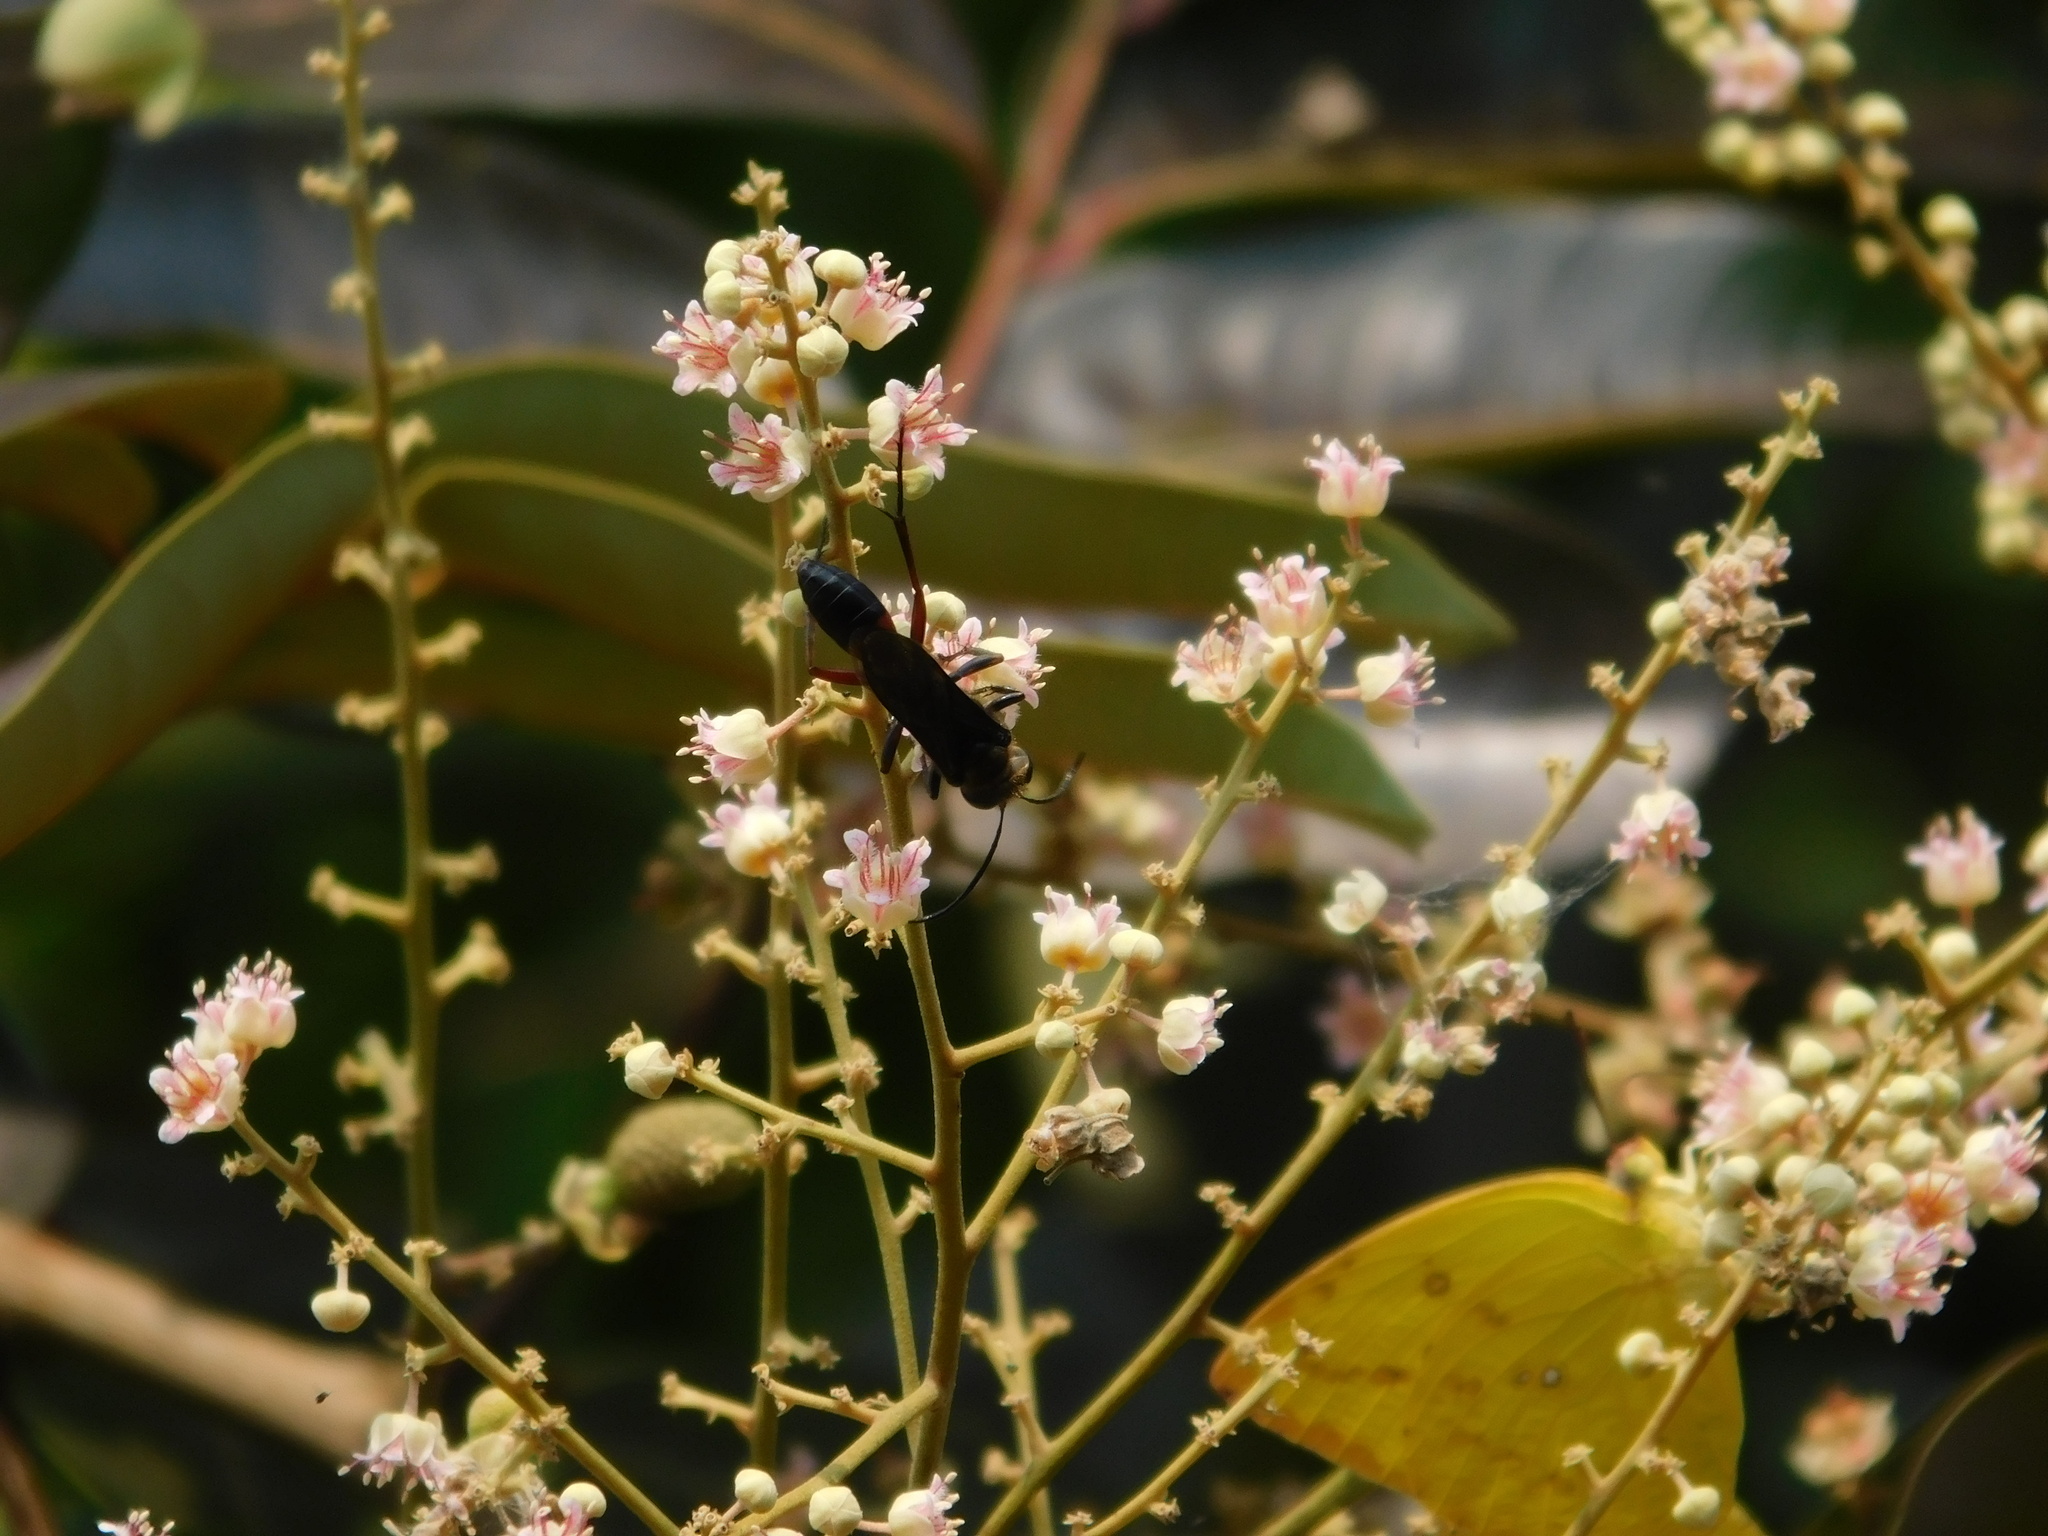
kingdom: Animalia
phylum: Arthropoda
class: Insecta
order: Hymenoptera
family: Sphecidae
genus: Sphex
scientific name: Sphex sericeus
